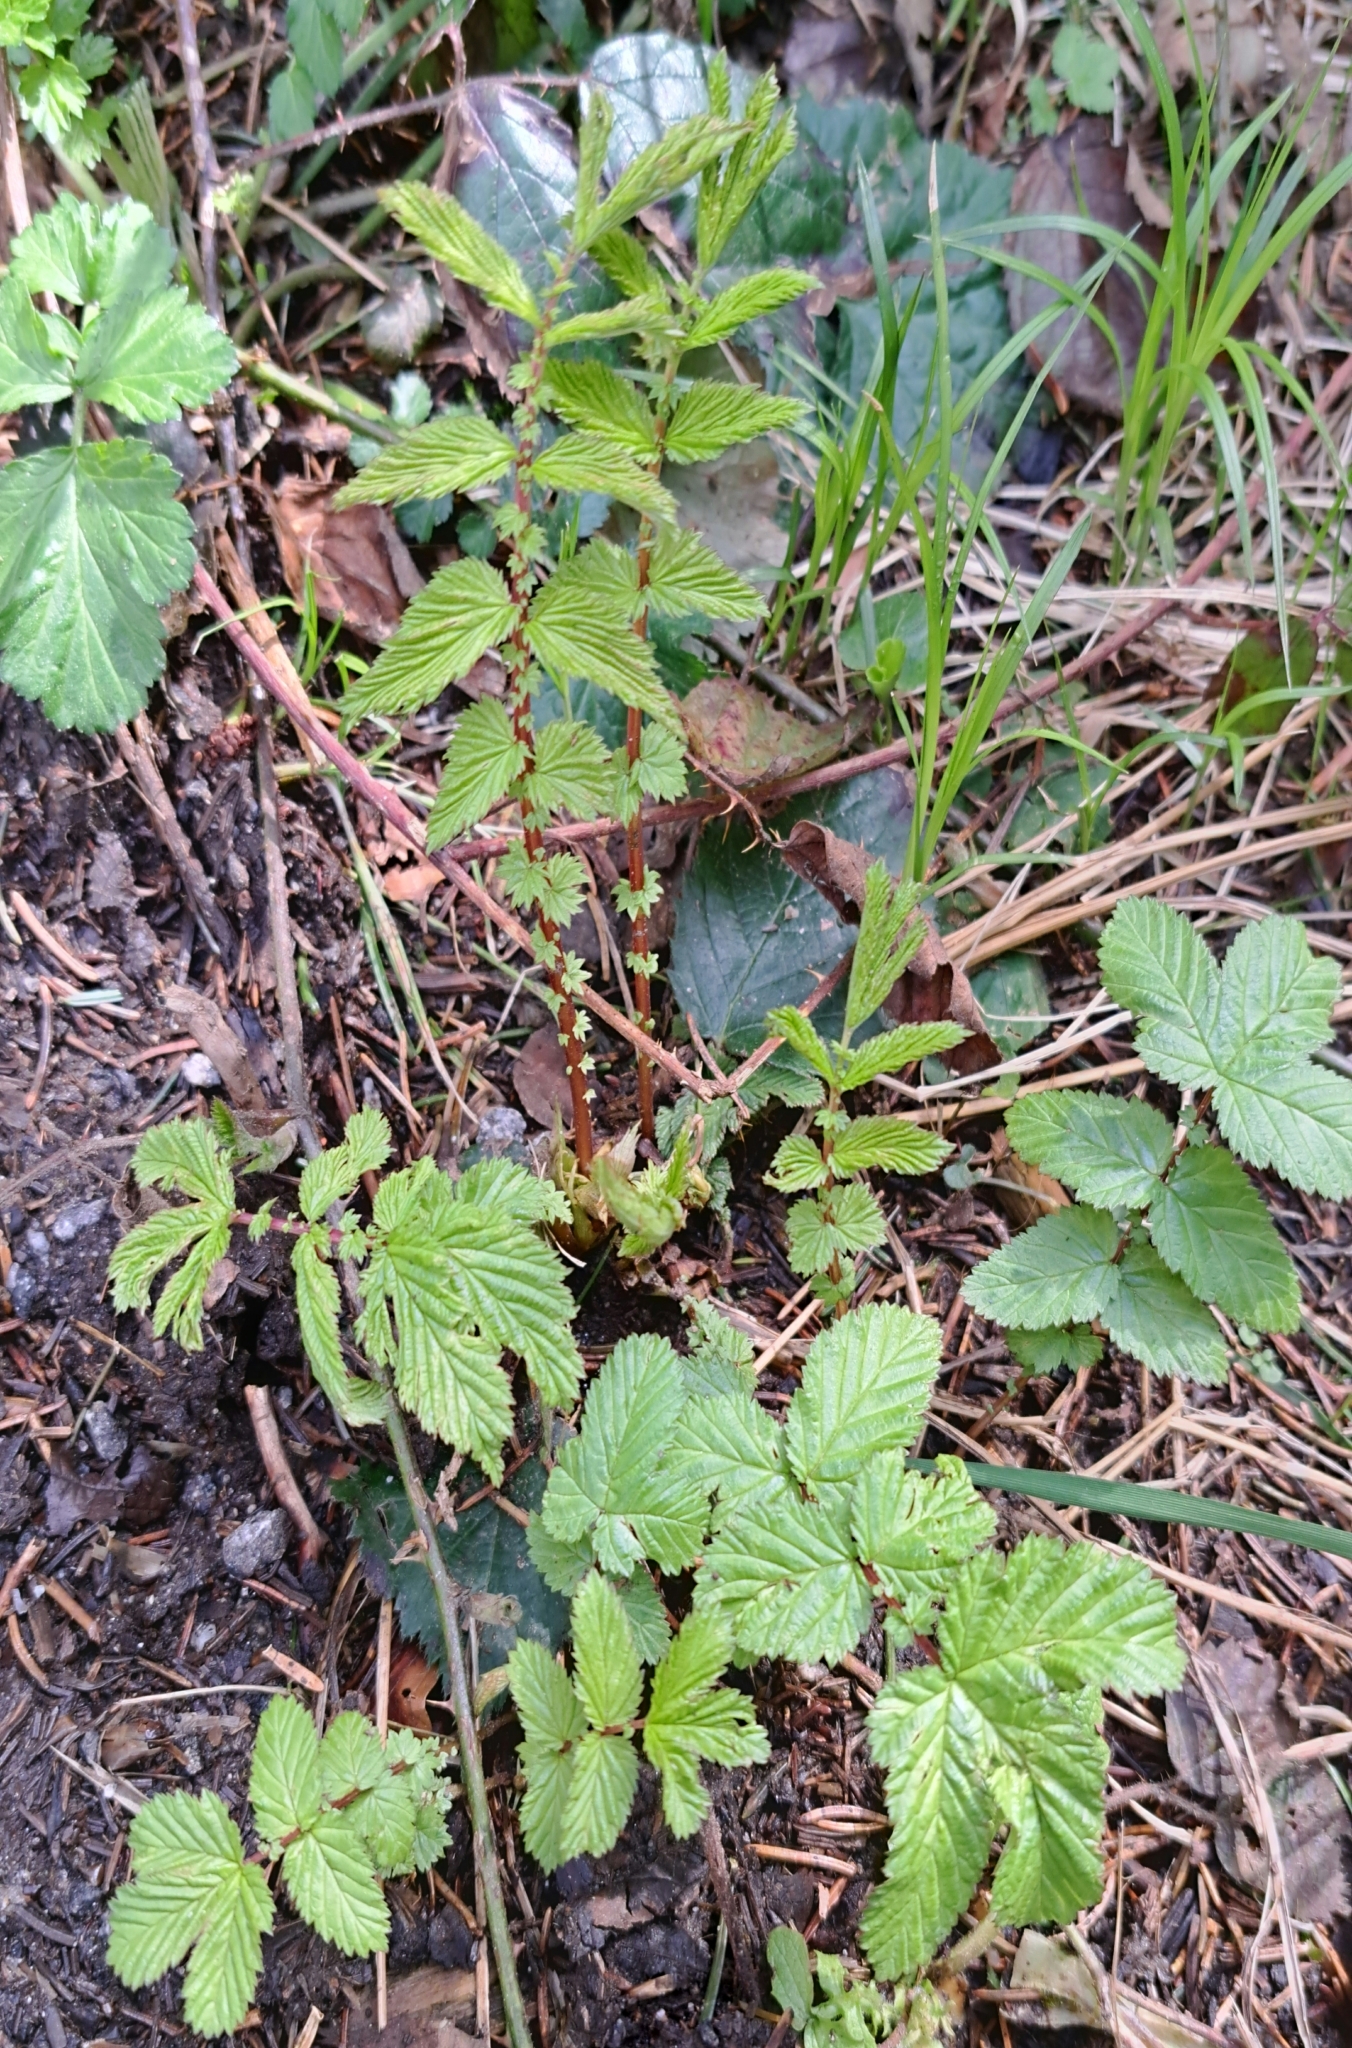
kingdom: Plantae
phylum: Tracheophyta
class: Magnoliopsida
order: Rosales
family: Rosaceae
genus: Filipendula
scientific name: Filipendula ulmaria
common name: Meadowsweet
